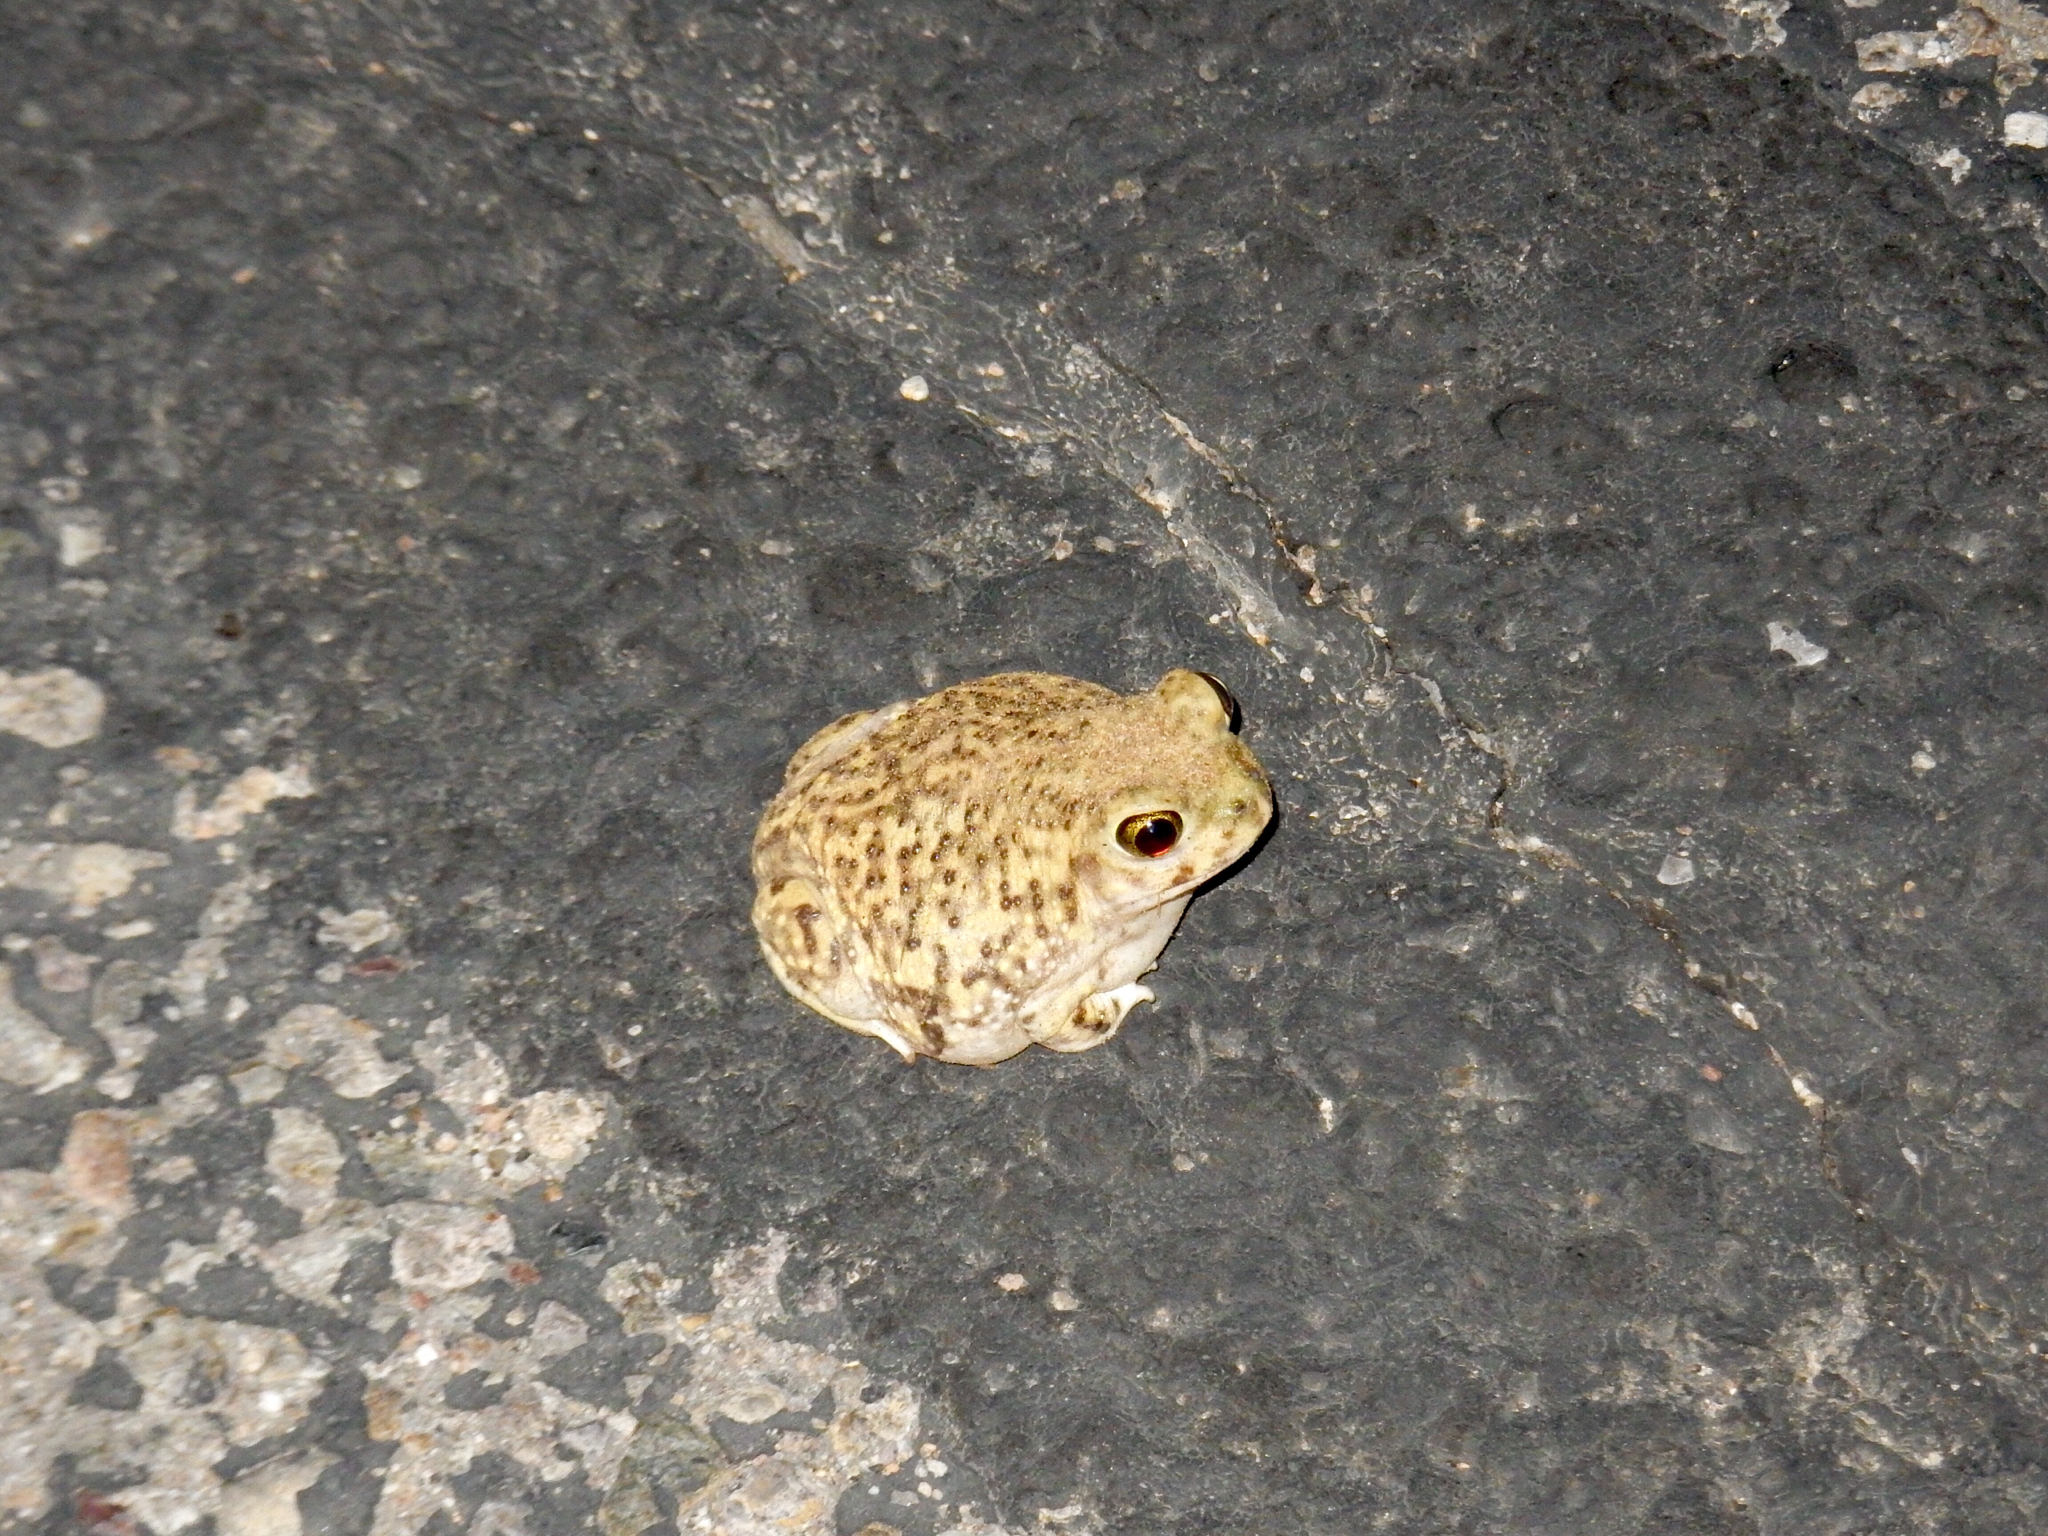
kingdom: Animalia
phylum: Chordata
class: Amphibia
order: Anura
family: Scaphiopodidae
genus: Scaphiopus
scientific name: Scaphiopus couchii
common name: Couch's spadefoot toad
